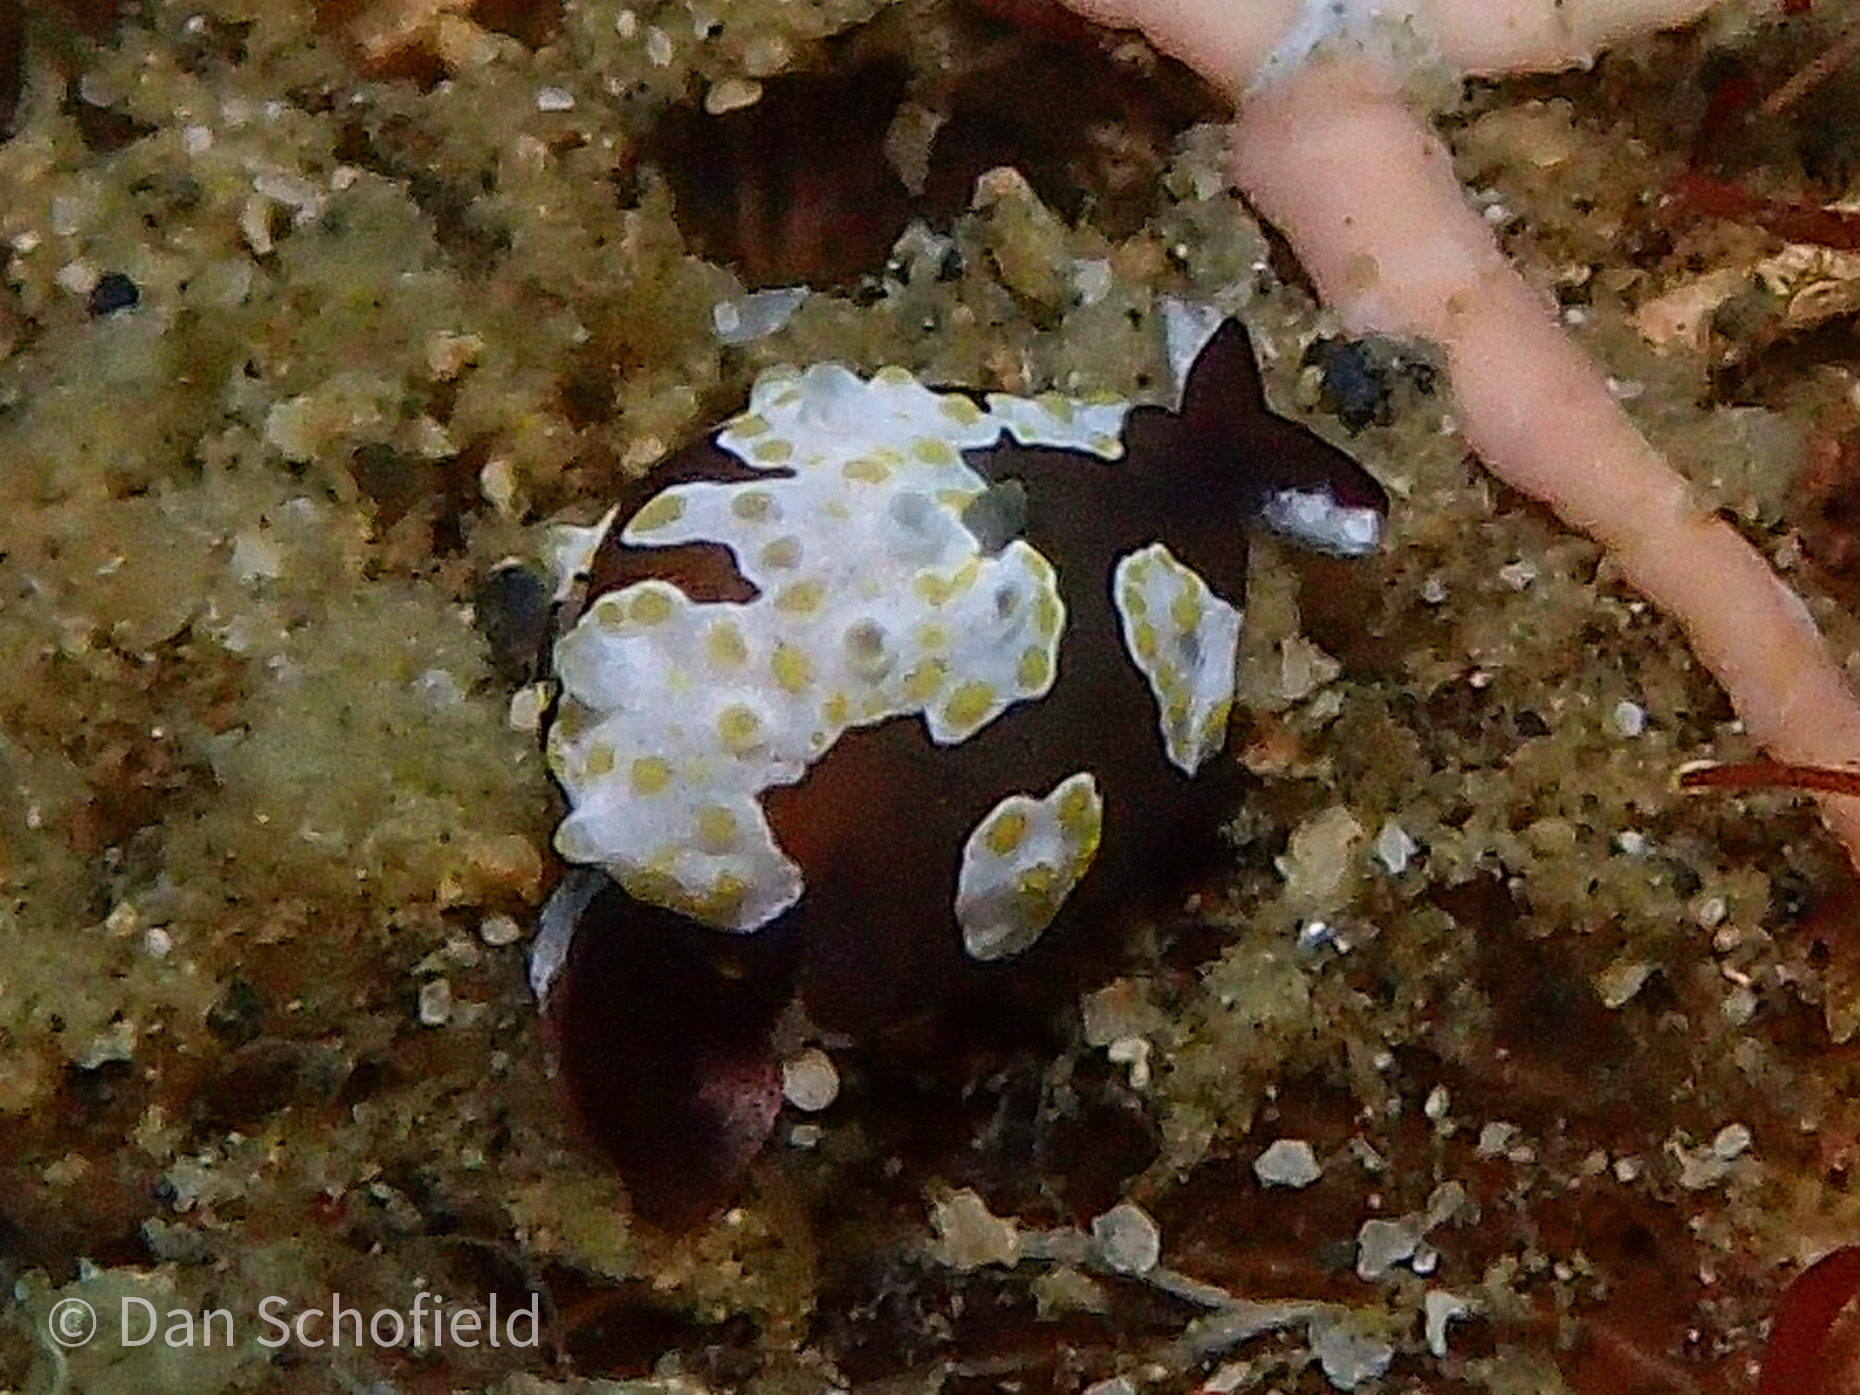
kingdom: Animalia
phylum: Mollusca
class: Gastropoda
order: Cephalaspidea
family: Colpodaspididae
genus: Colpodaspis
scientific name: Colpodaspis thompsoni
